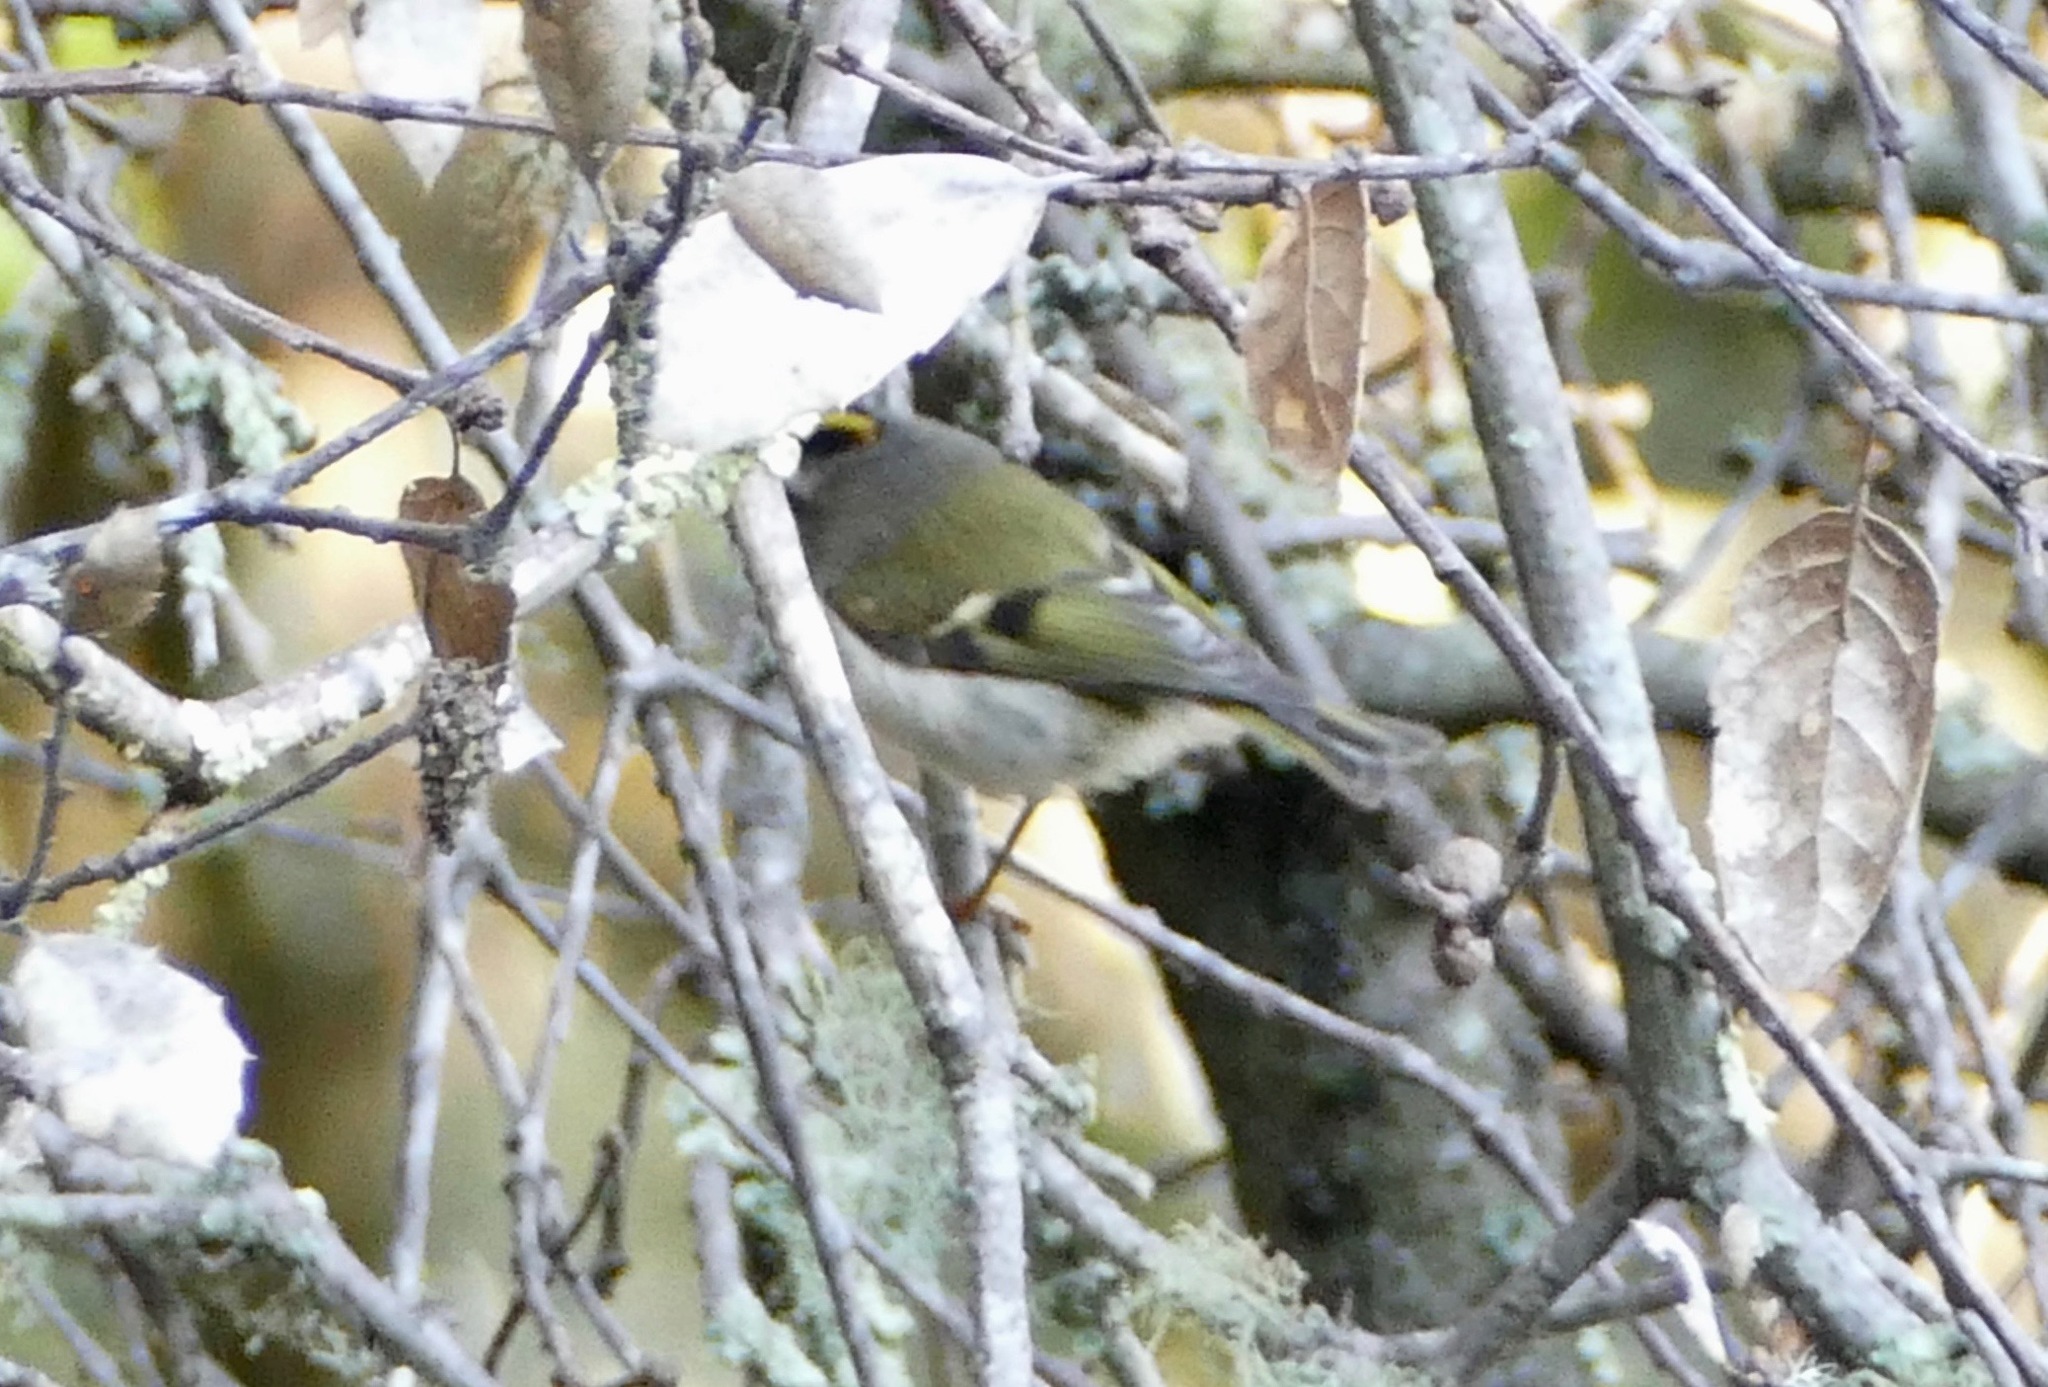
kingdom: Animalia
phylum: Chordata
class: Aves
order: Passeriformes
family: Regulidae
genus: Regulus
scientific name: Regulus satrapa
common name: Golden-crowned kinglet
